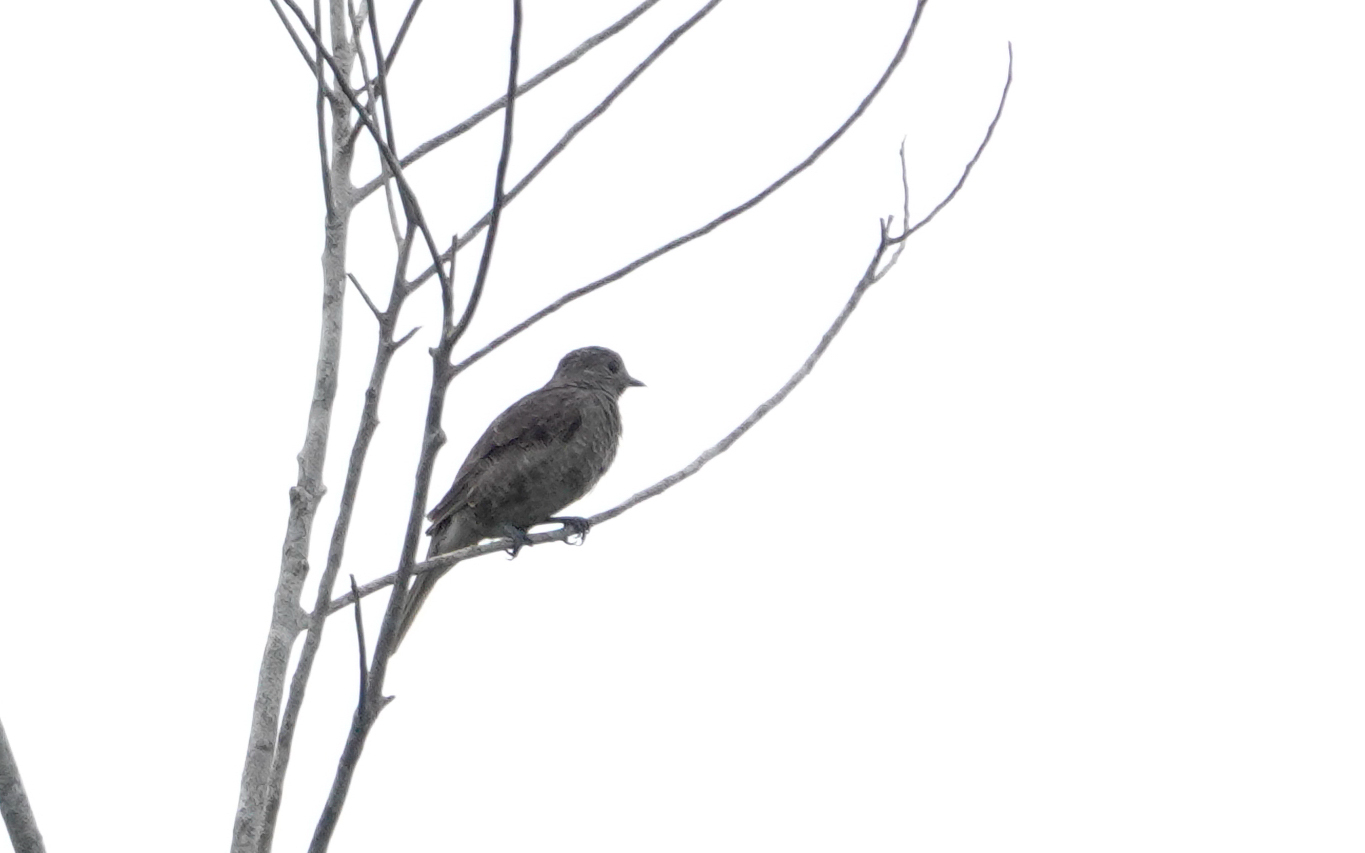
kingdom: Animalia
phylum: Chordata
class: Aves
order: Passeriformes
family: Cotingidae
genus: Cotinga
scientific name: Cotinga cayana
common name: Spangled cotinga
